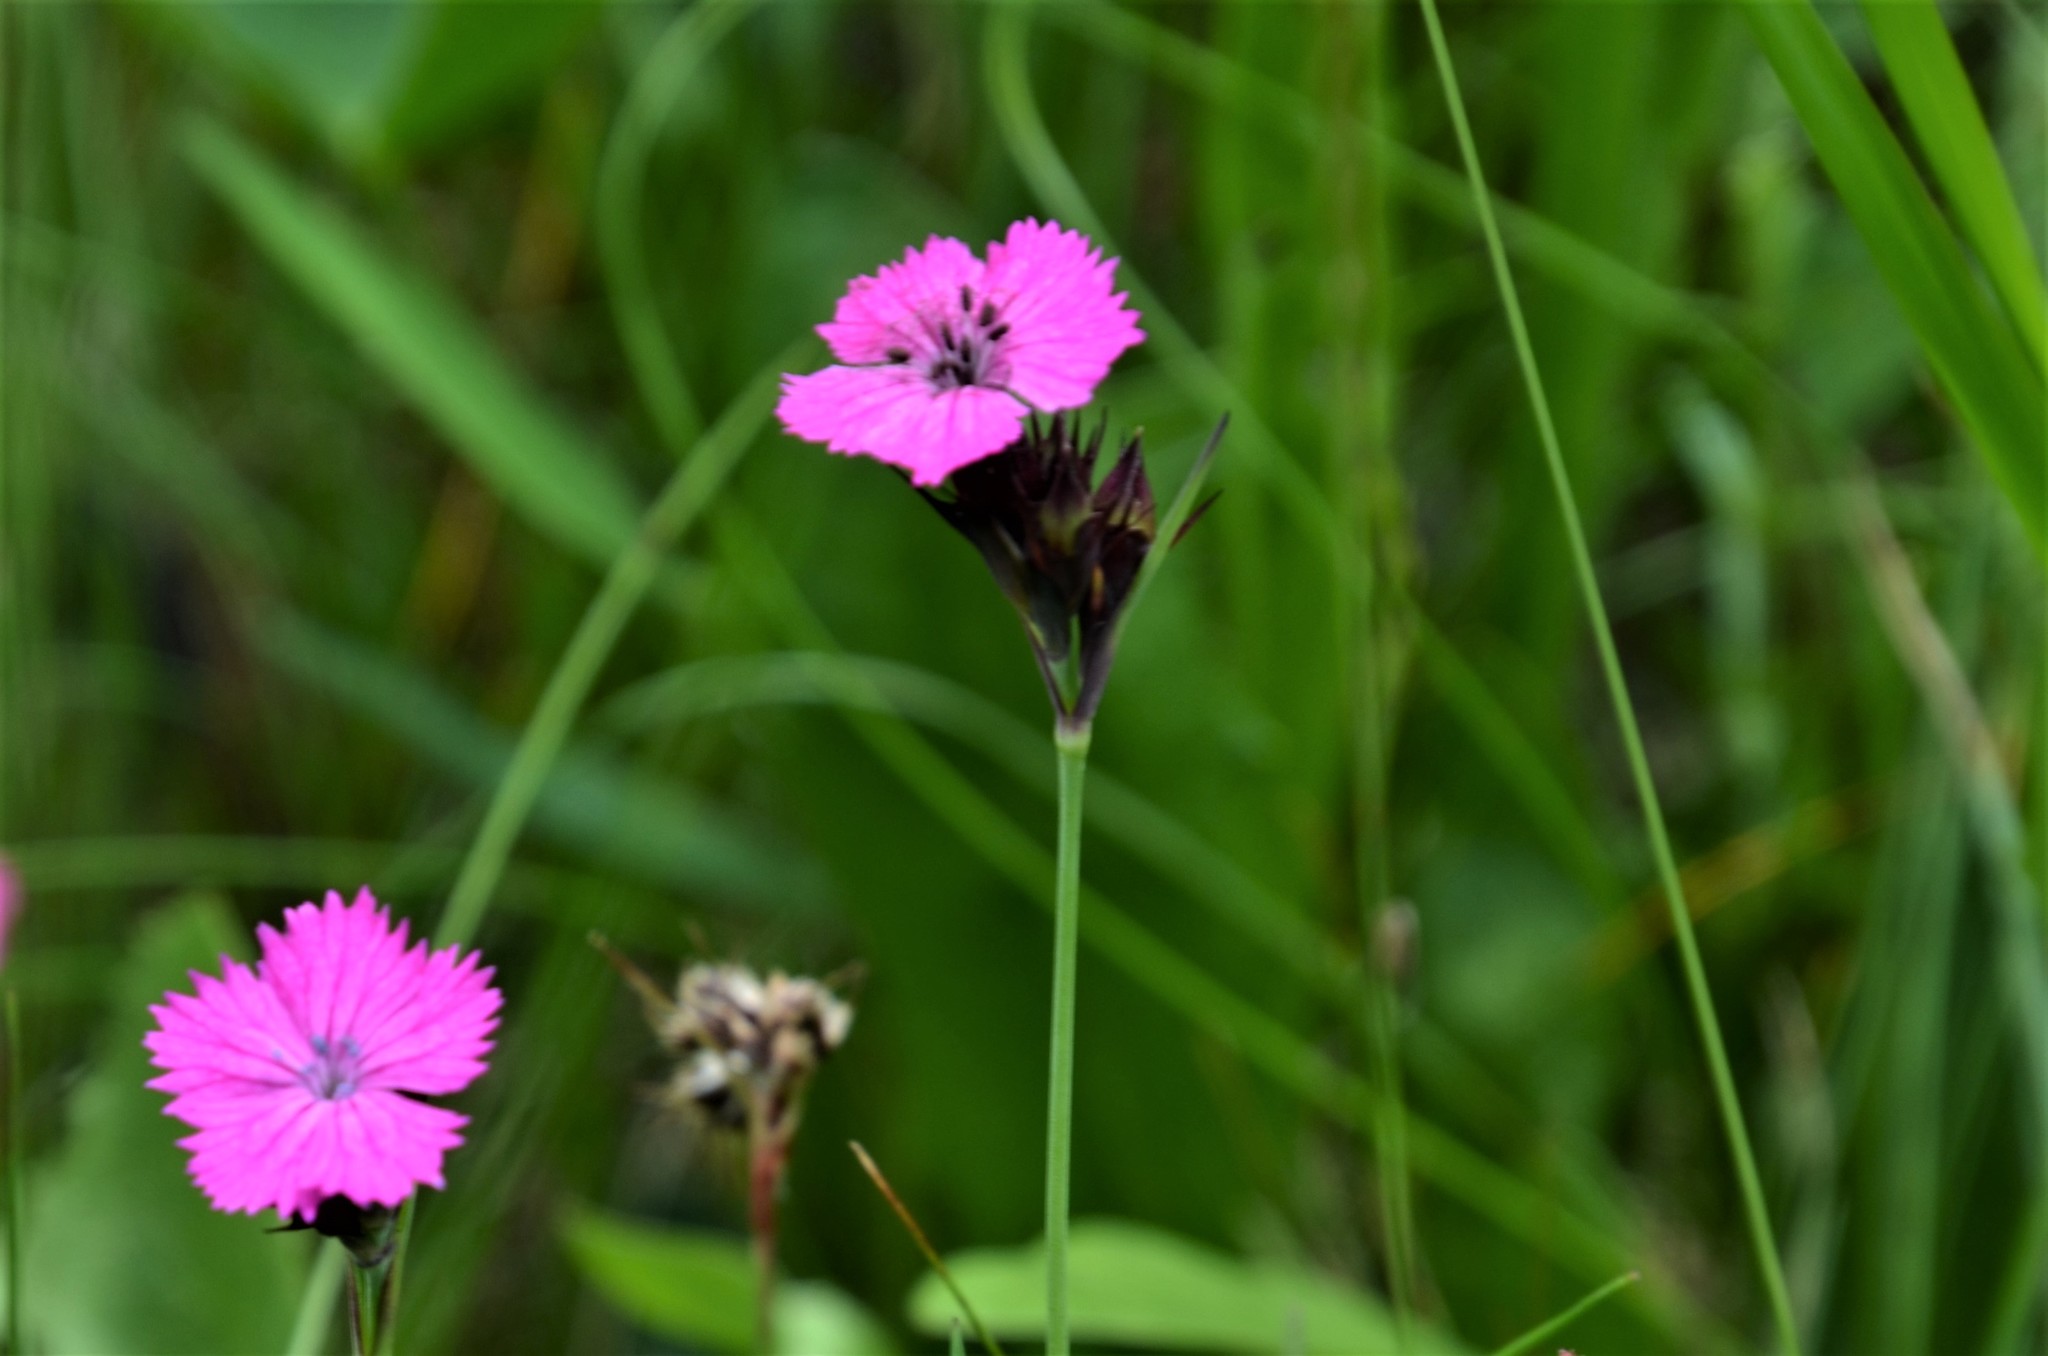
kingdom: Plantae
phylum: Tracheophyta
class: Magnoliopsida
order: Caryophyllales
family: Caryophyllaceae
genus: Dianthus
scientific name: Dianthus carthusianorum
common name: Carthusian pink
